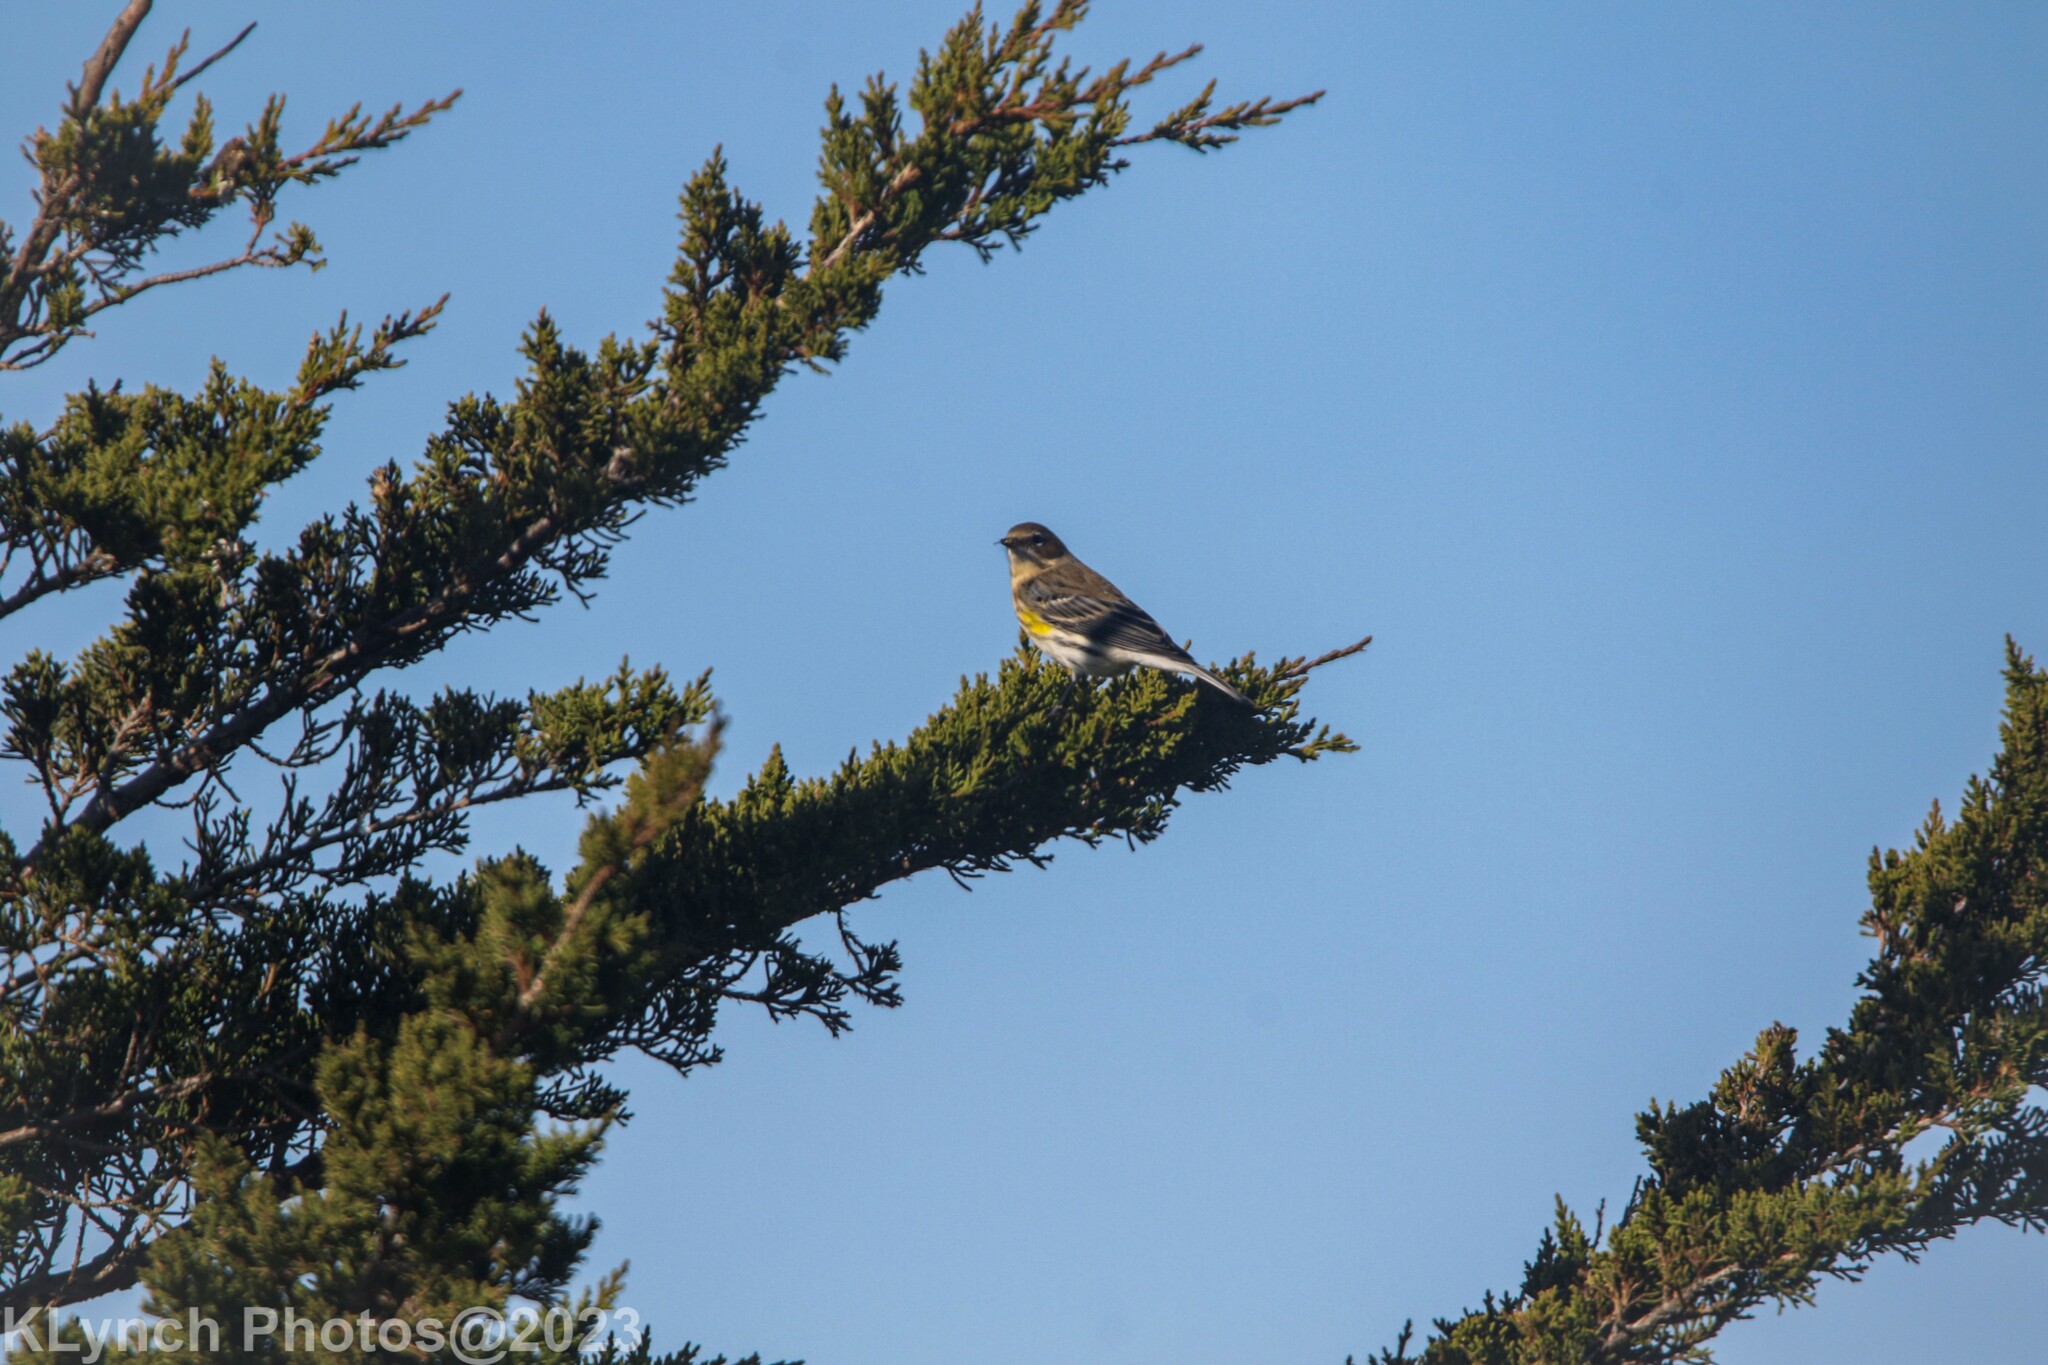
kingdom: Animalia
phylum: Chordata
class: Aves
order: Passeriformes
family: Parulidae
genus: Setophaga
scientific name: Setophaga coronata
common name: Myrtle warbler
